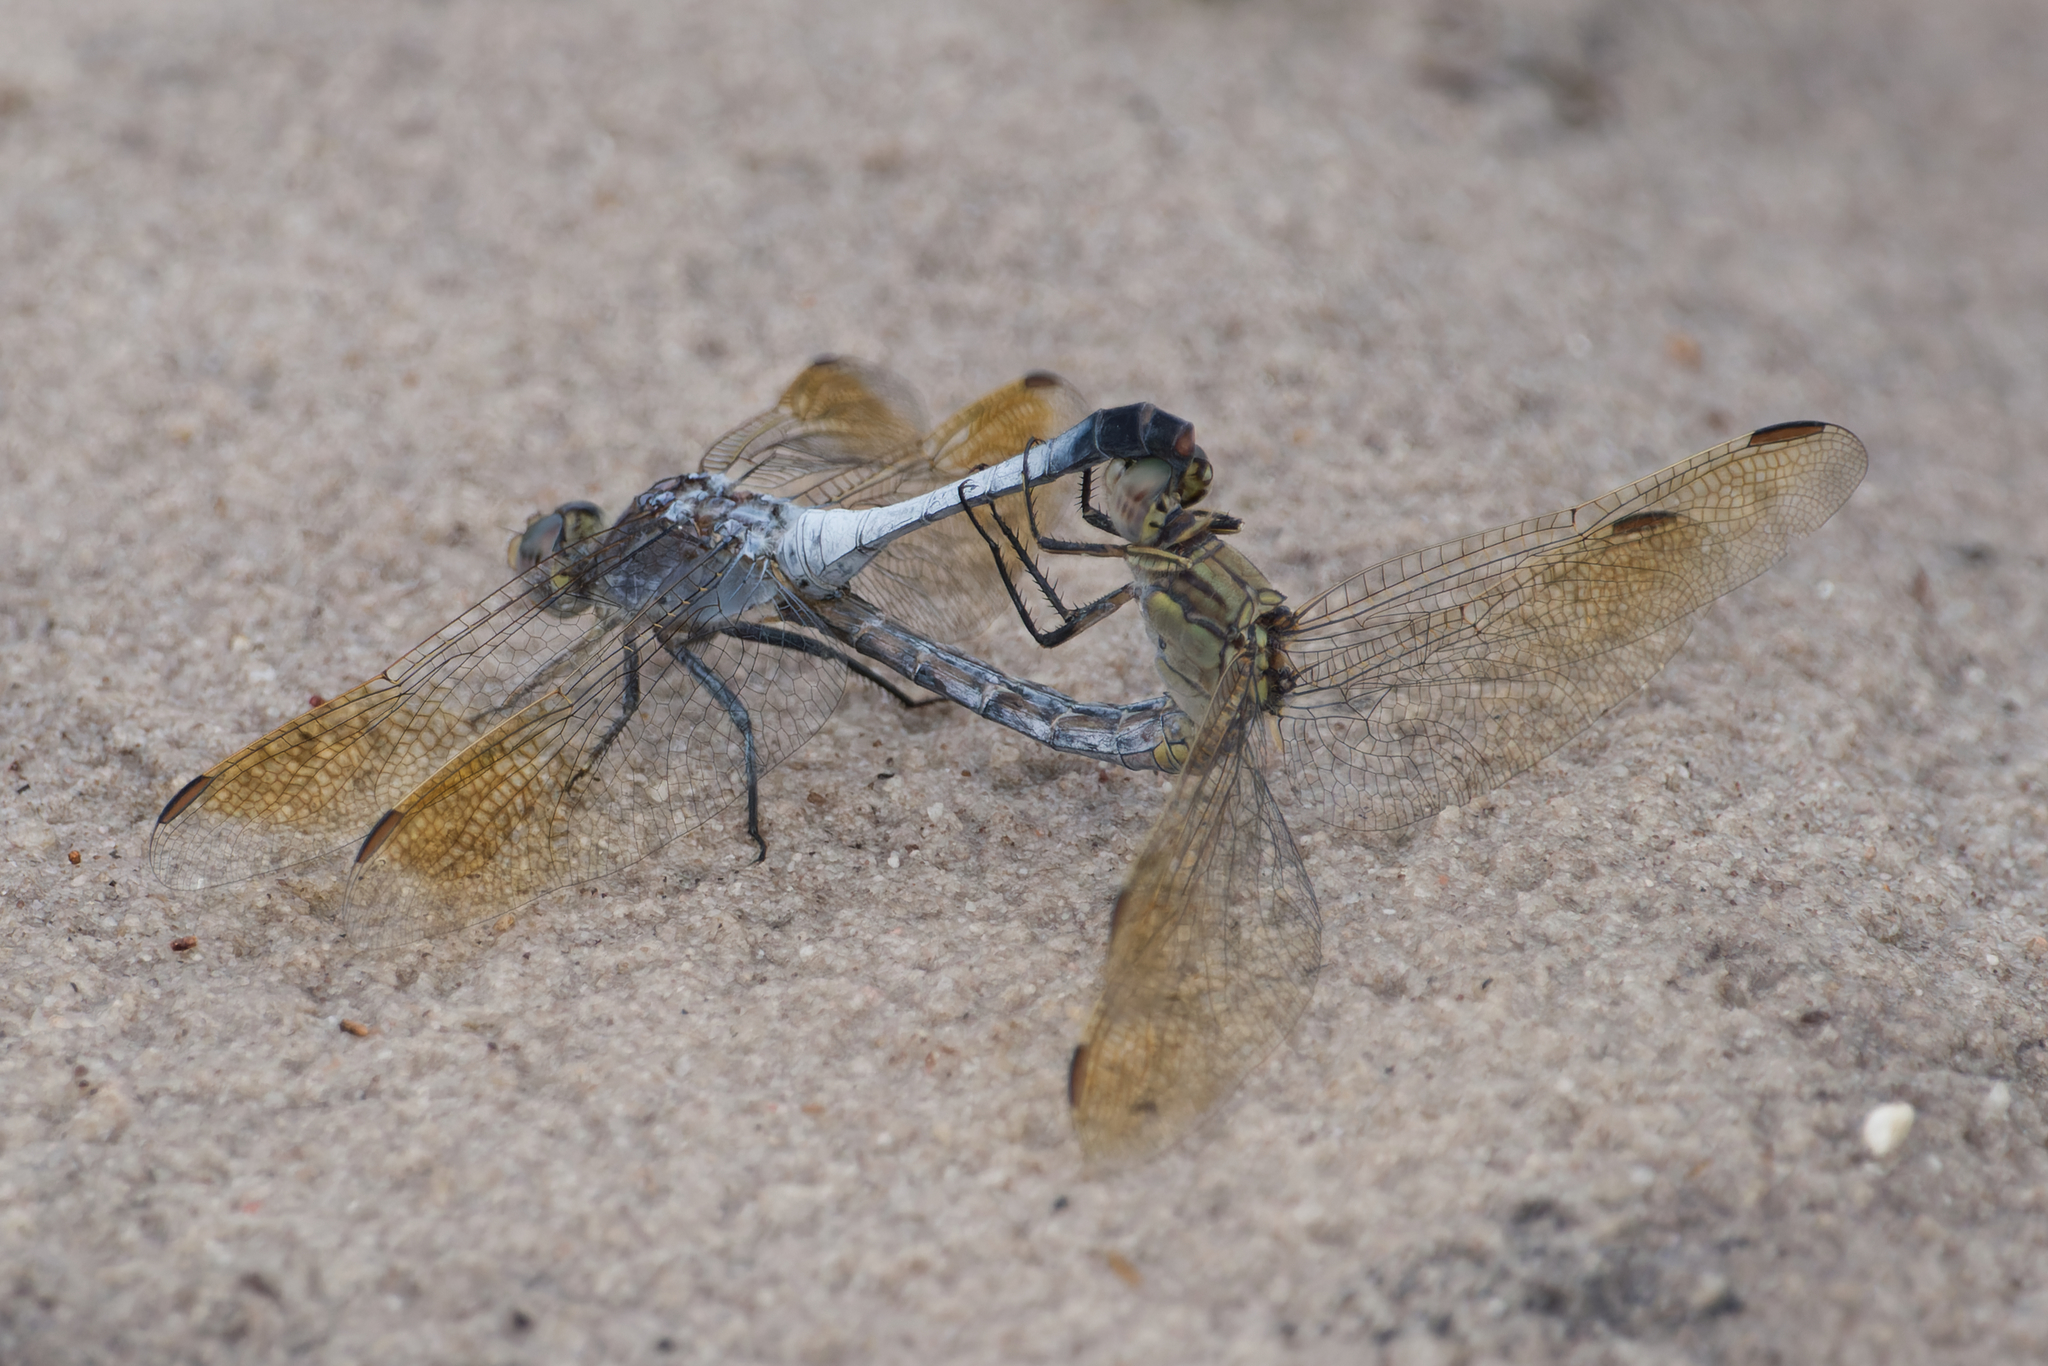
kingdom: Animalia
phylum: Arthropoda
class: Insecta
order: Odonata
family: Libellulidae
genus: Orthetrum
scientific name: Orthetrum caledonicum
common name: Blue skimmer
